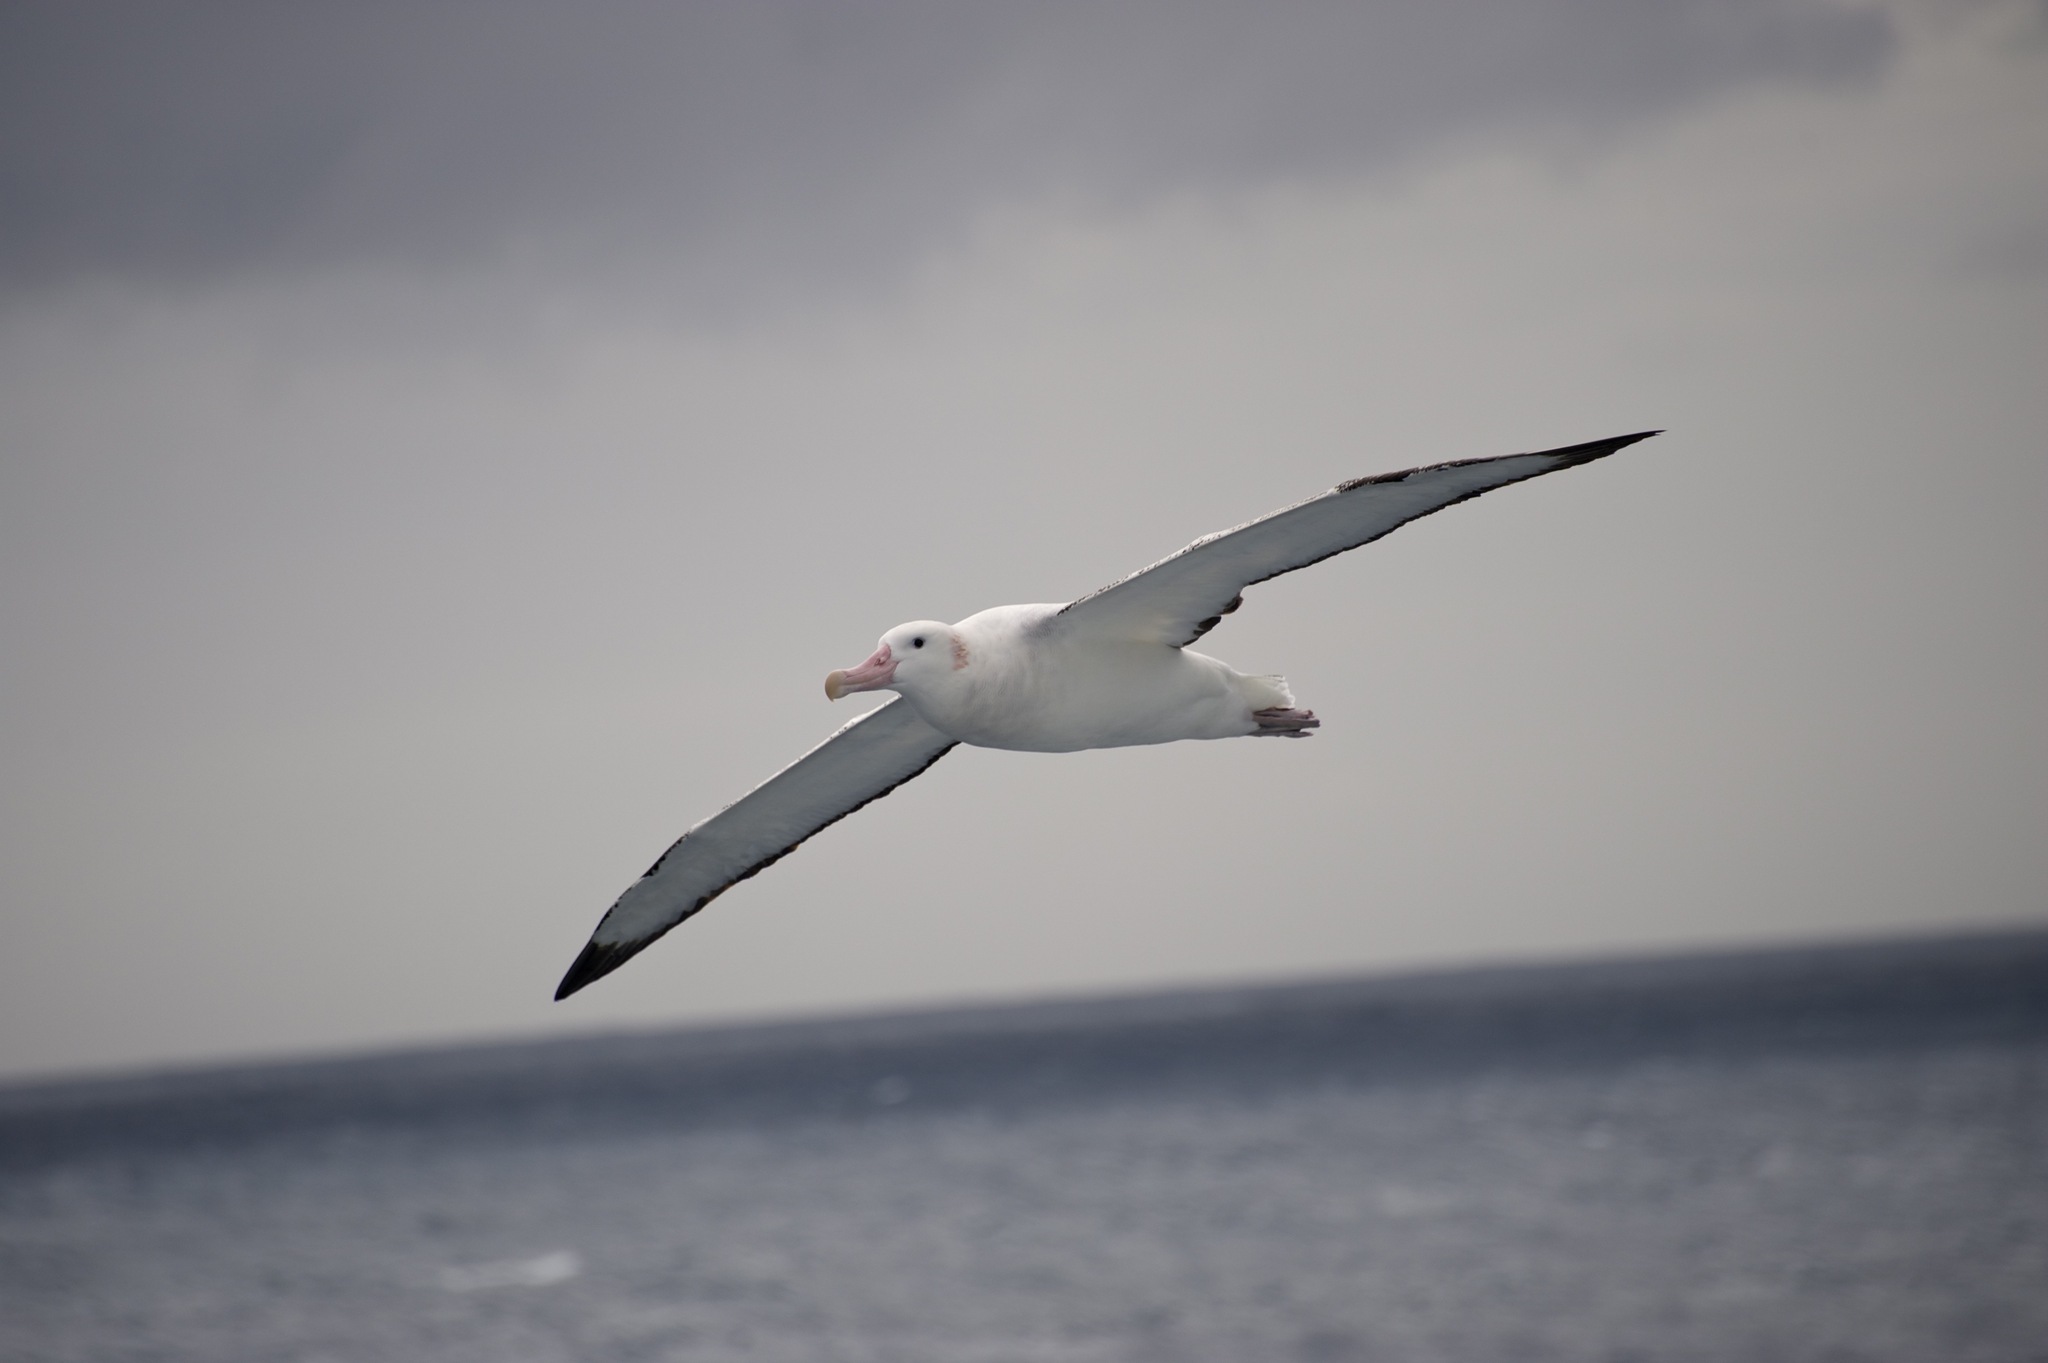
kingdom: Animalia
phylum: Chordata
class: Aves
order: Procellariiformes
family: Diomedeidae
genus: Diomedea
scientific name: Diomedea exulans
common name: Wandering albatross
